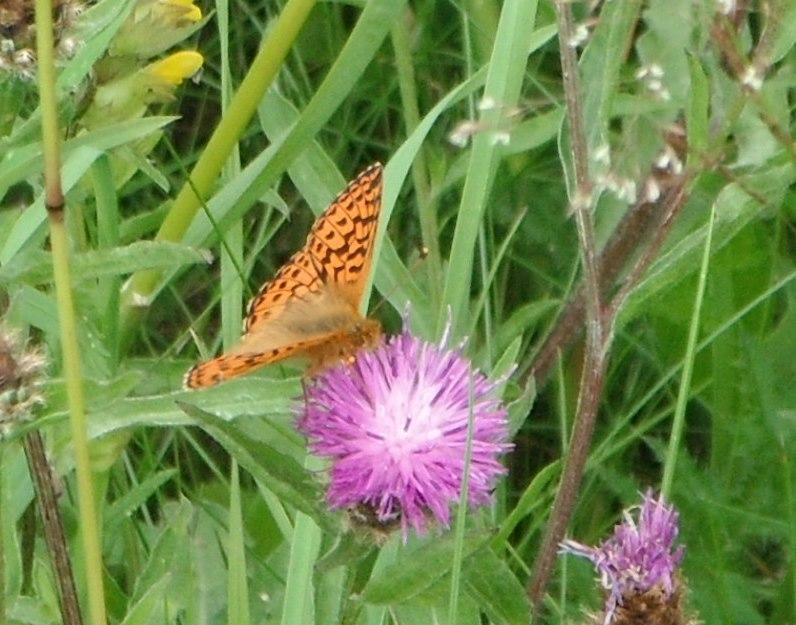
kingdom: Plantae
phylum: Tracheophyta
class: Magnoliopsida
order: Asterales
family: Asteraceae
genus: Centaurea
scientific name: Centaurea jacea
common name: Brown knapweed
